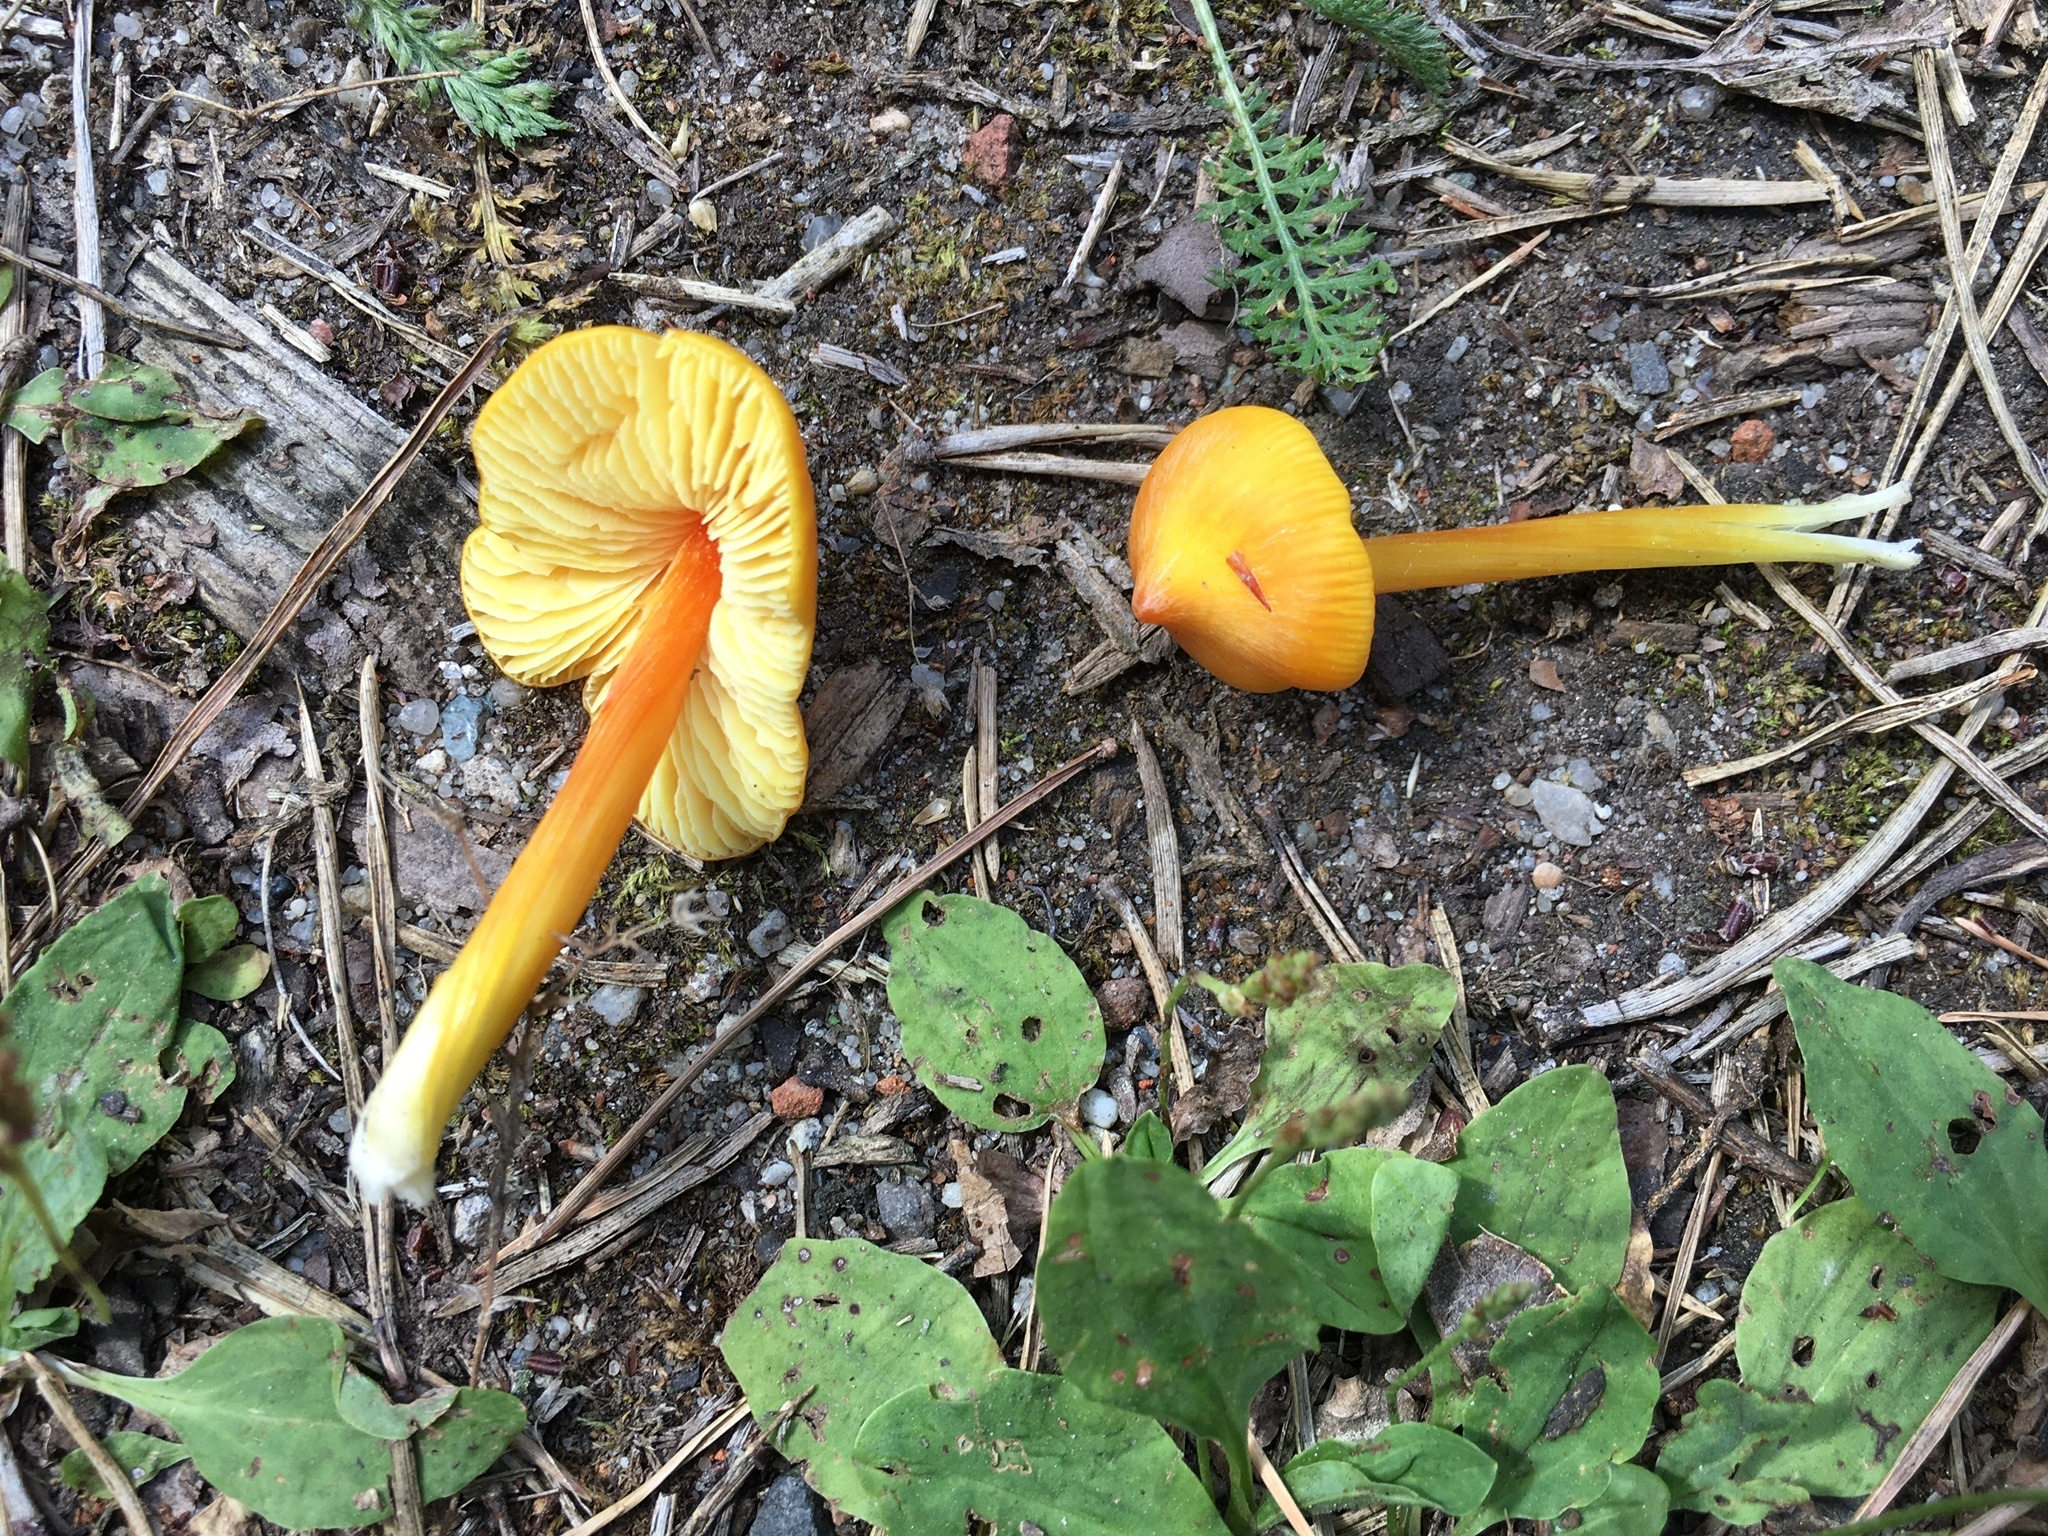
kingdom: Fungi
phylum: Basidiomycota
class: Agaricomycetes
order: Agaricales
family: Hygrophoraceae
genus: Hygrocybe
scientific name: Hygrocybe acutoconica
